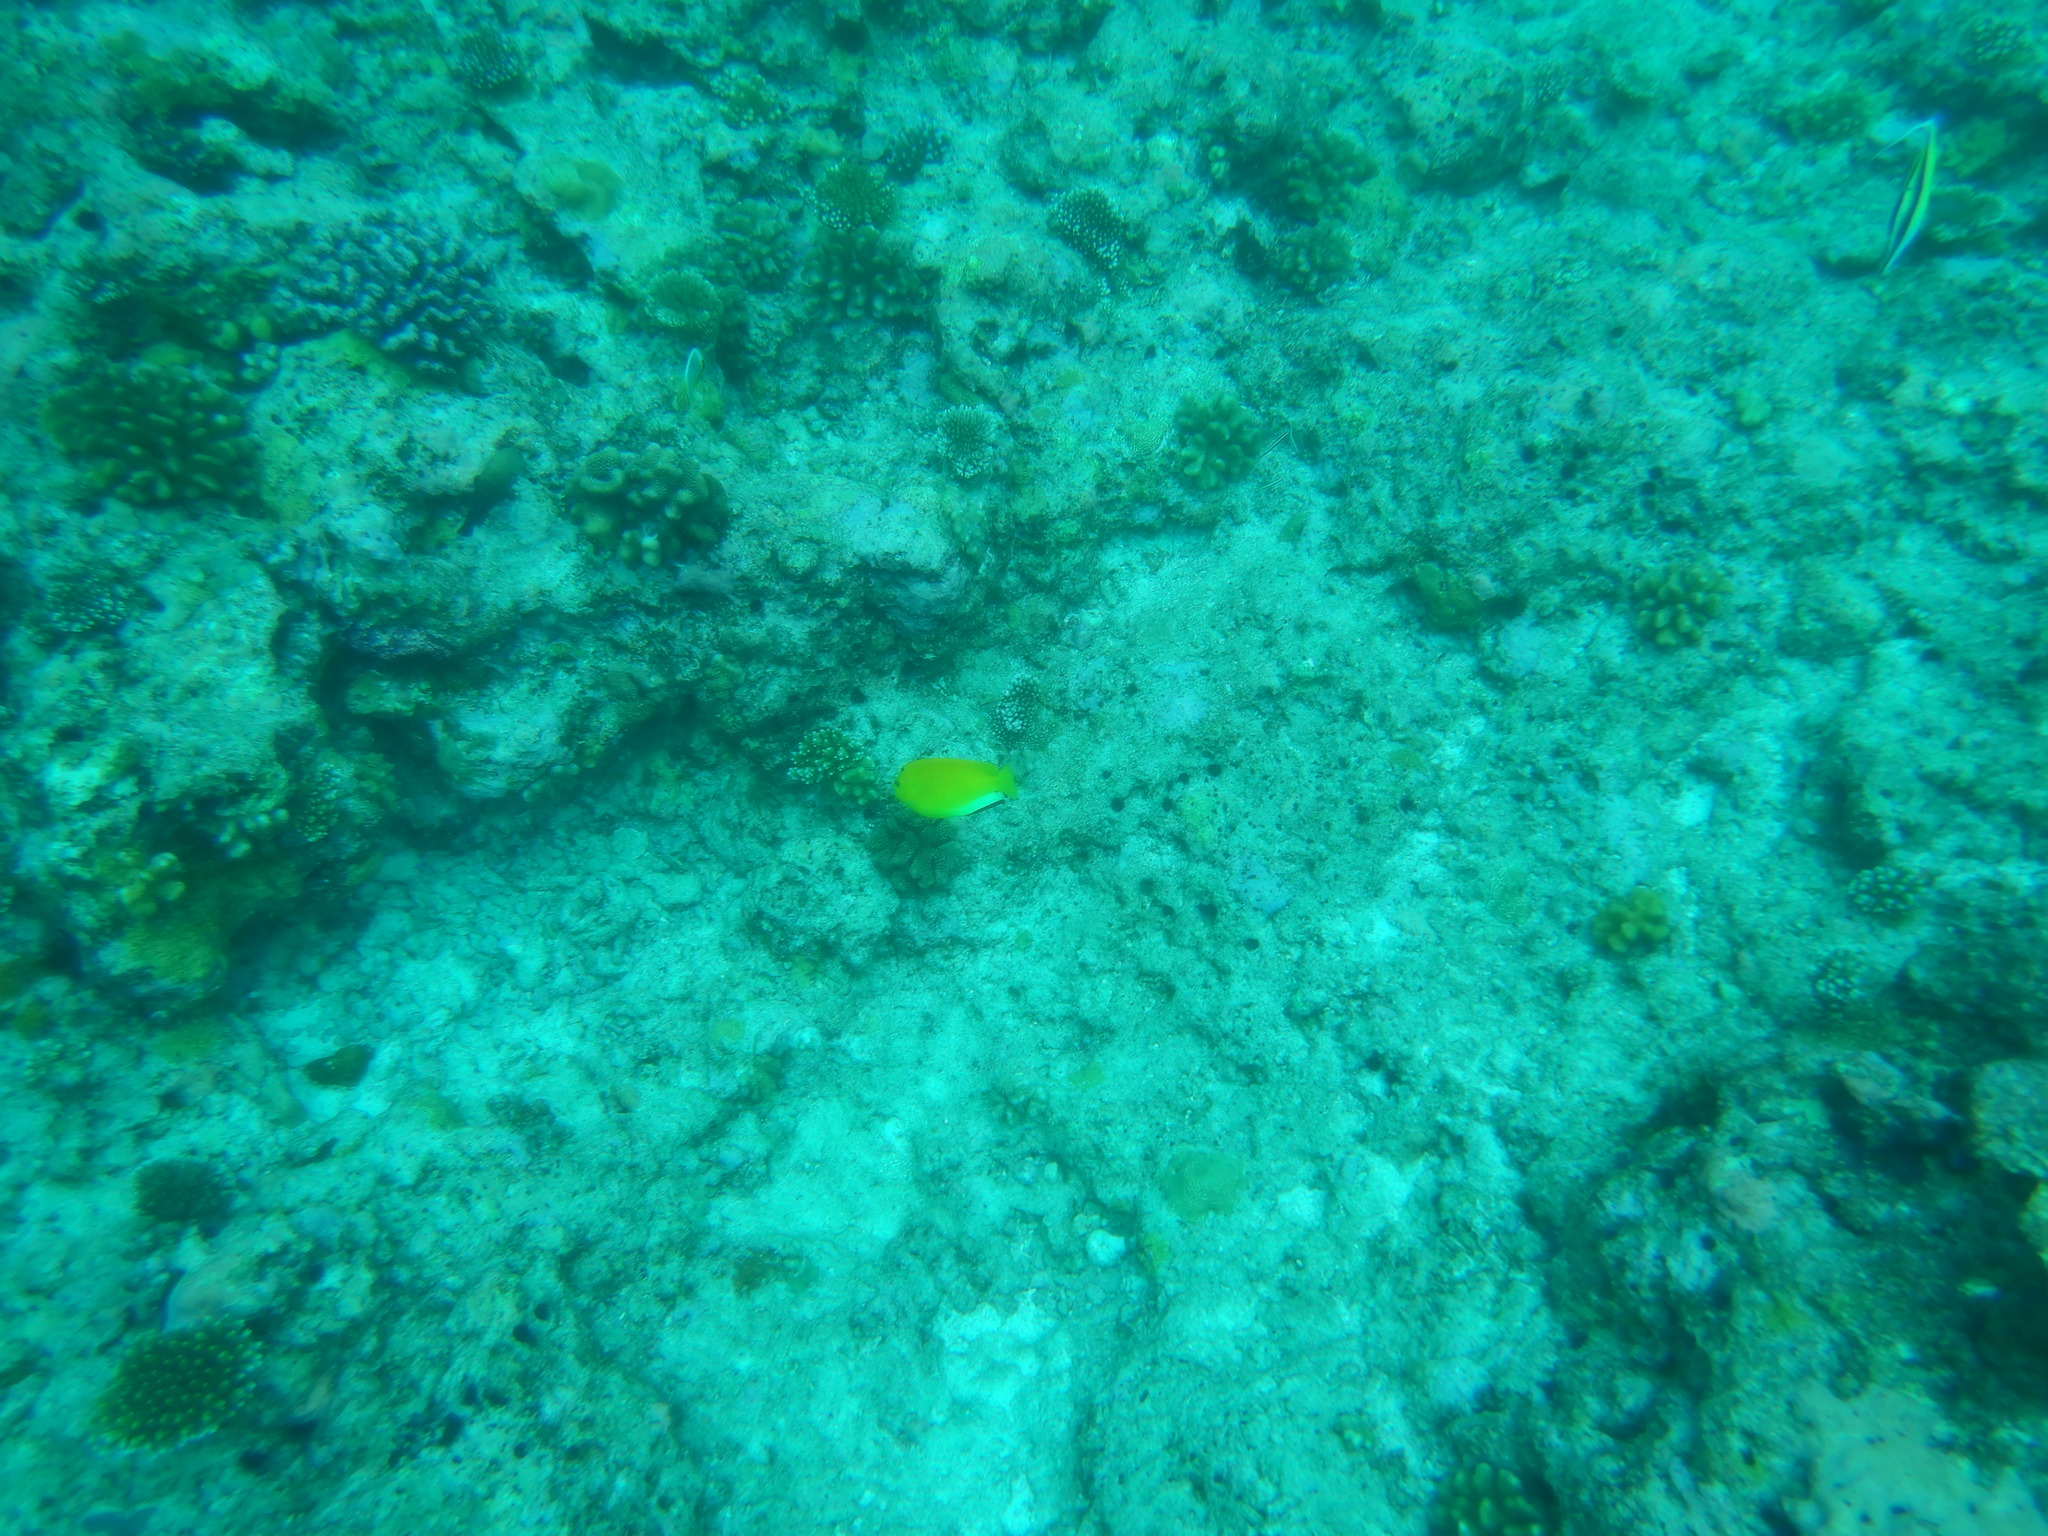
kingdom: Animalia
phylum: Chordata
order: Perciformes
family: Pomacanthidae
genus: Apolemichthys
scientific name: Apolemichthys trimaculatus
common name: Threespot angelfish
